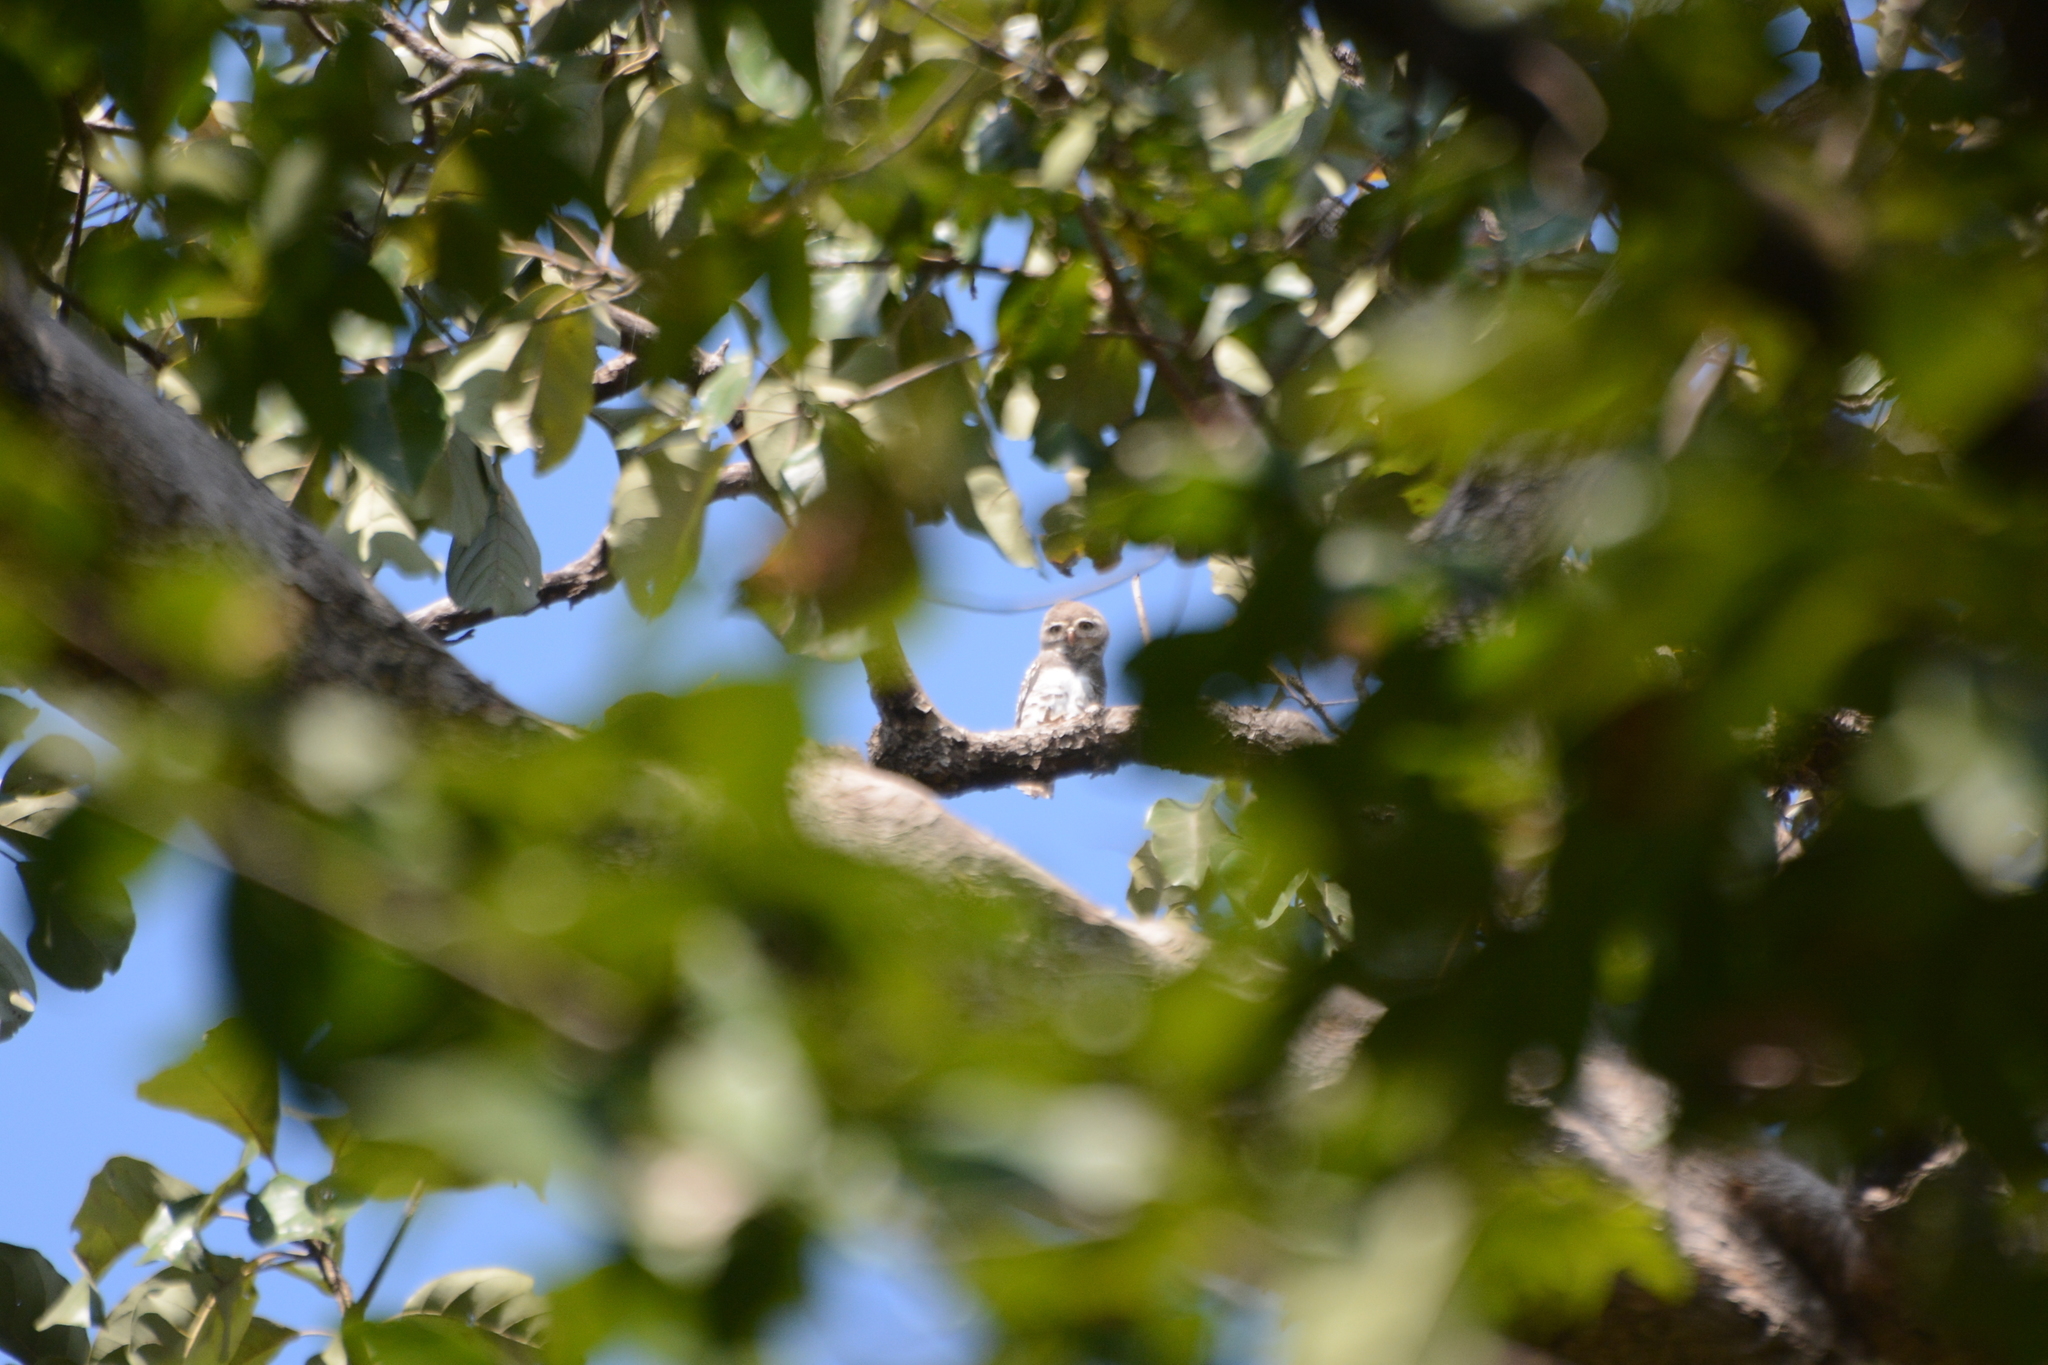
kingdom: Animalia
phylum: Chordata
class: Aves
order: Strigiformes
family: Strigidae
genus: Heteroglaux
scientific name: Heteroglaux blewitti
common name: Forest owlet
